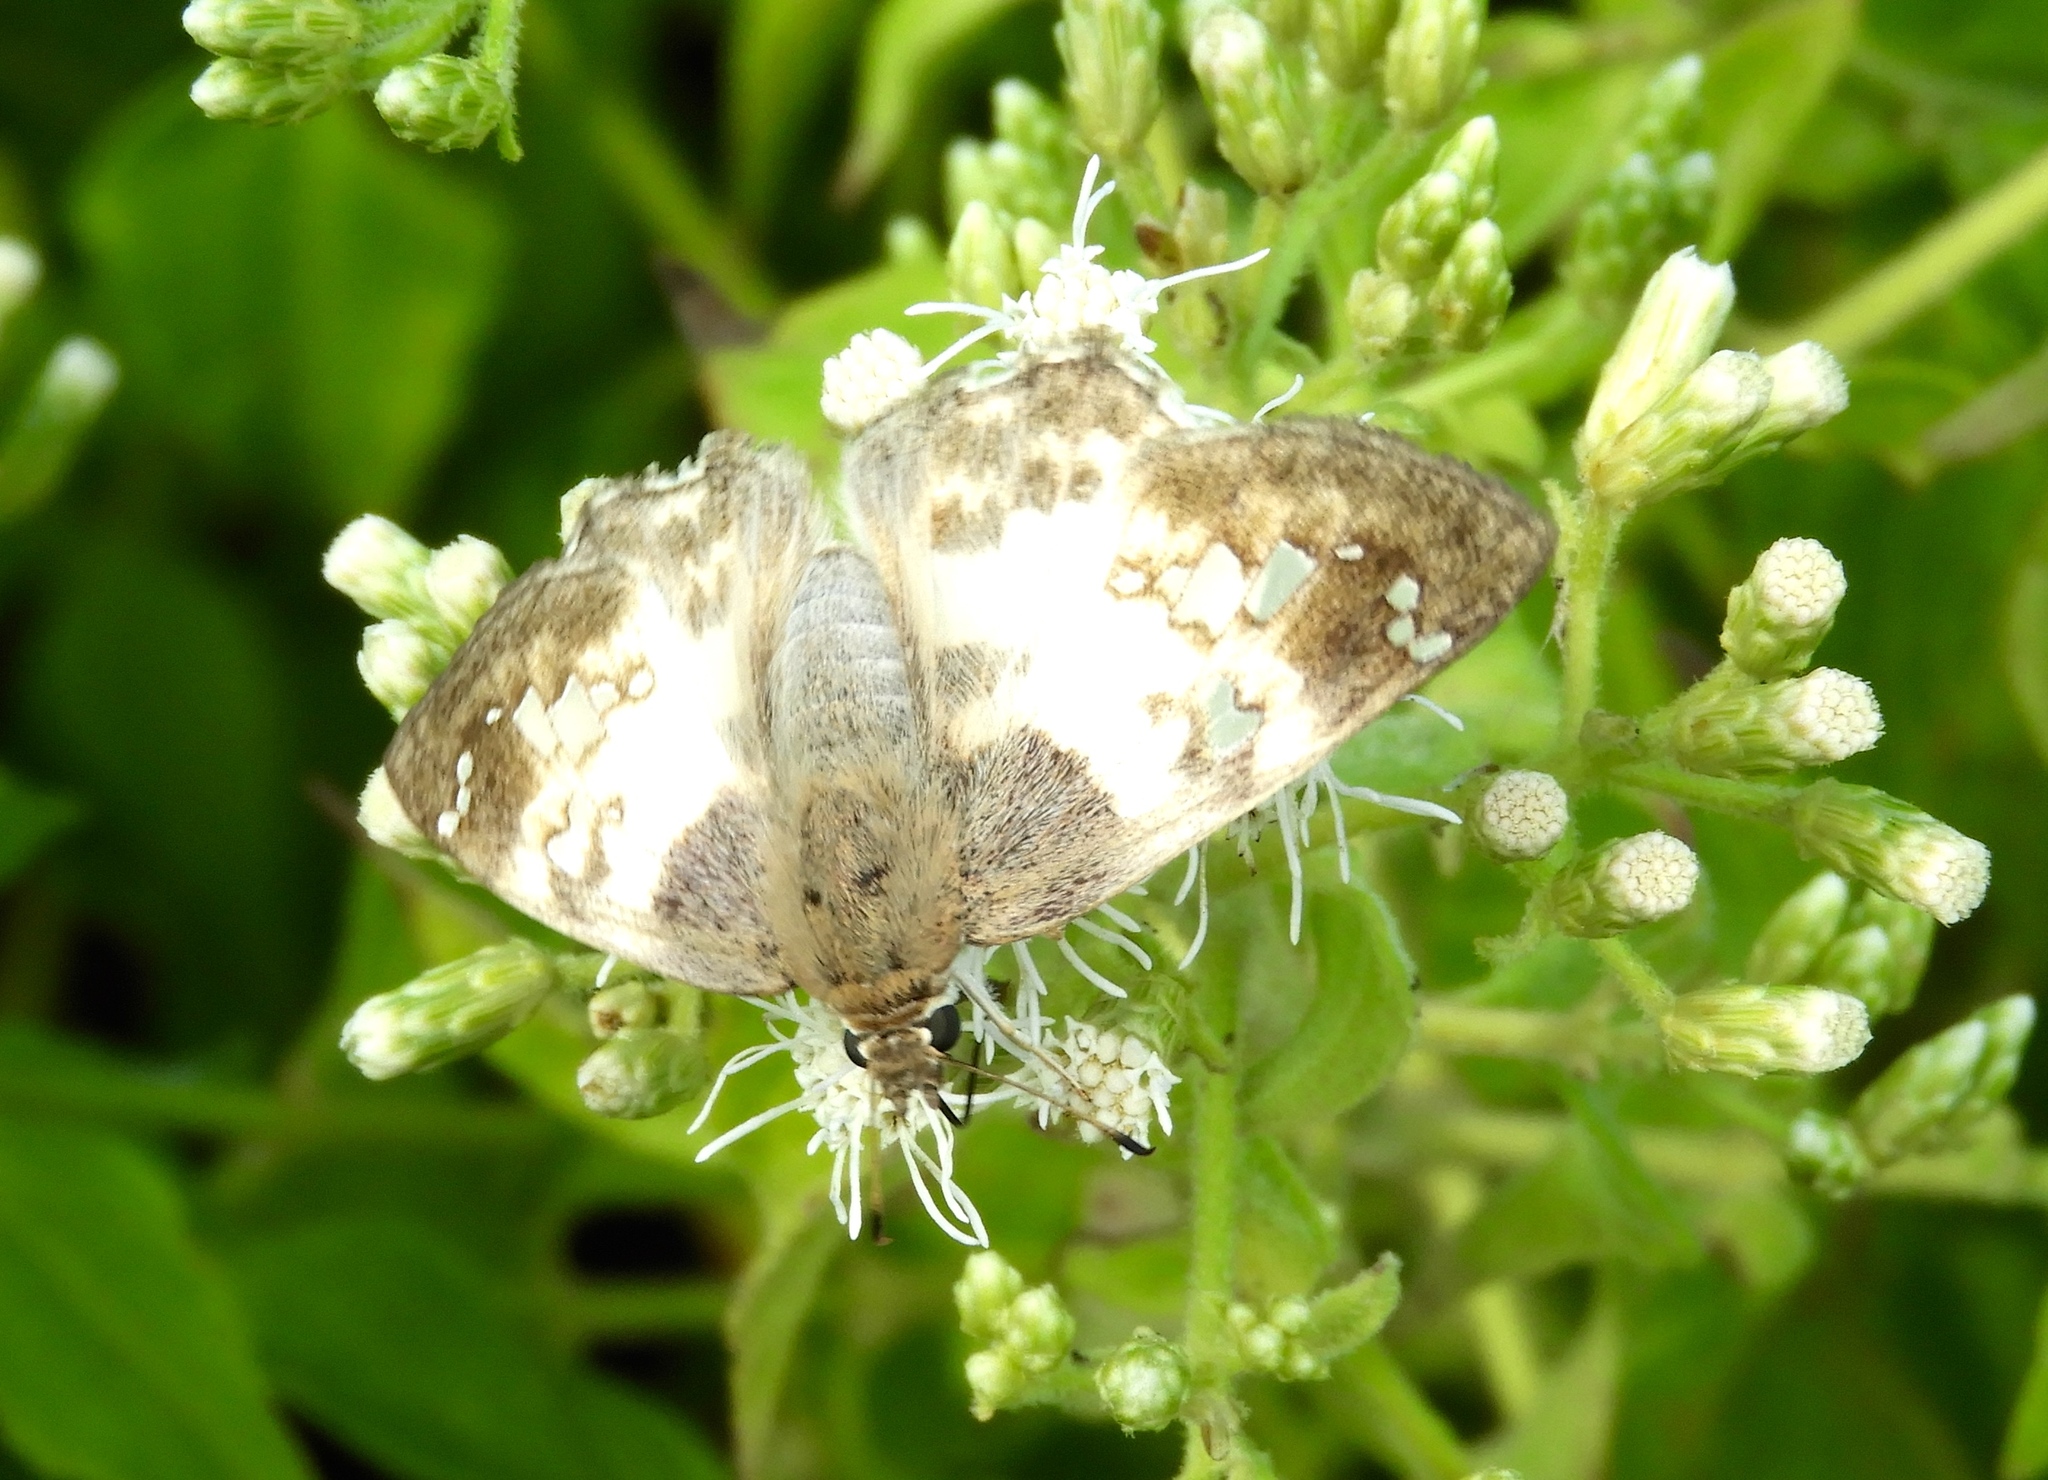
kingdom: Animalia
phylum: Arthropoda
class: Insecta
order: Lepidoptera
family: Hesperiidae
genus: Polyctor
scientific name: Polyctor cleta
